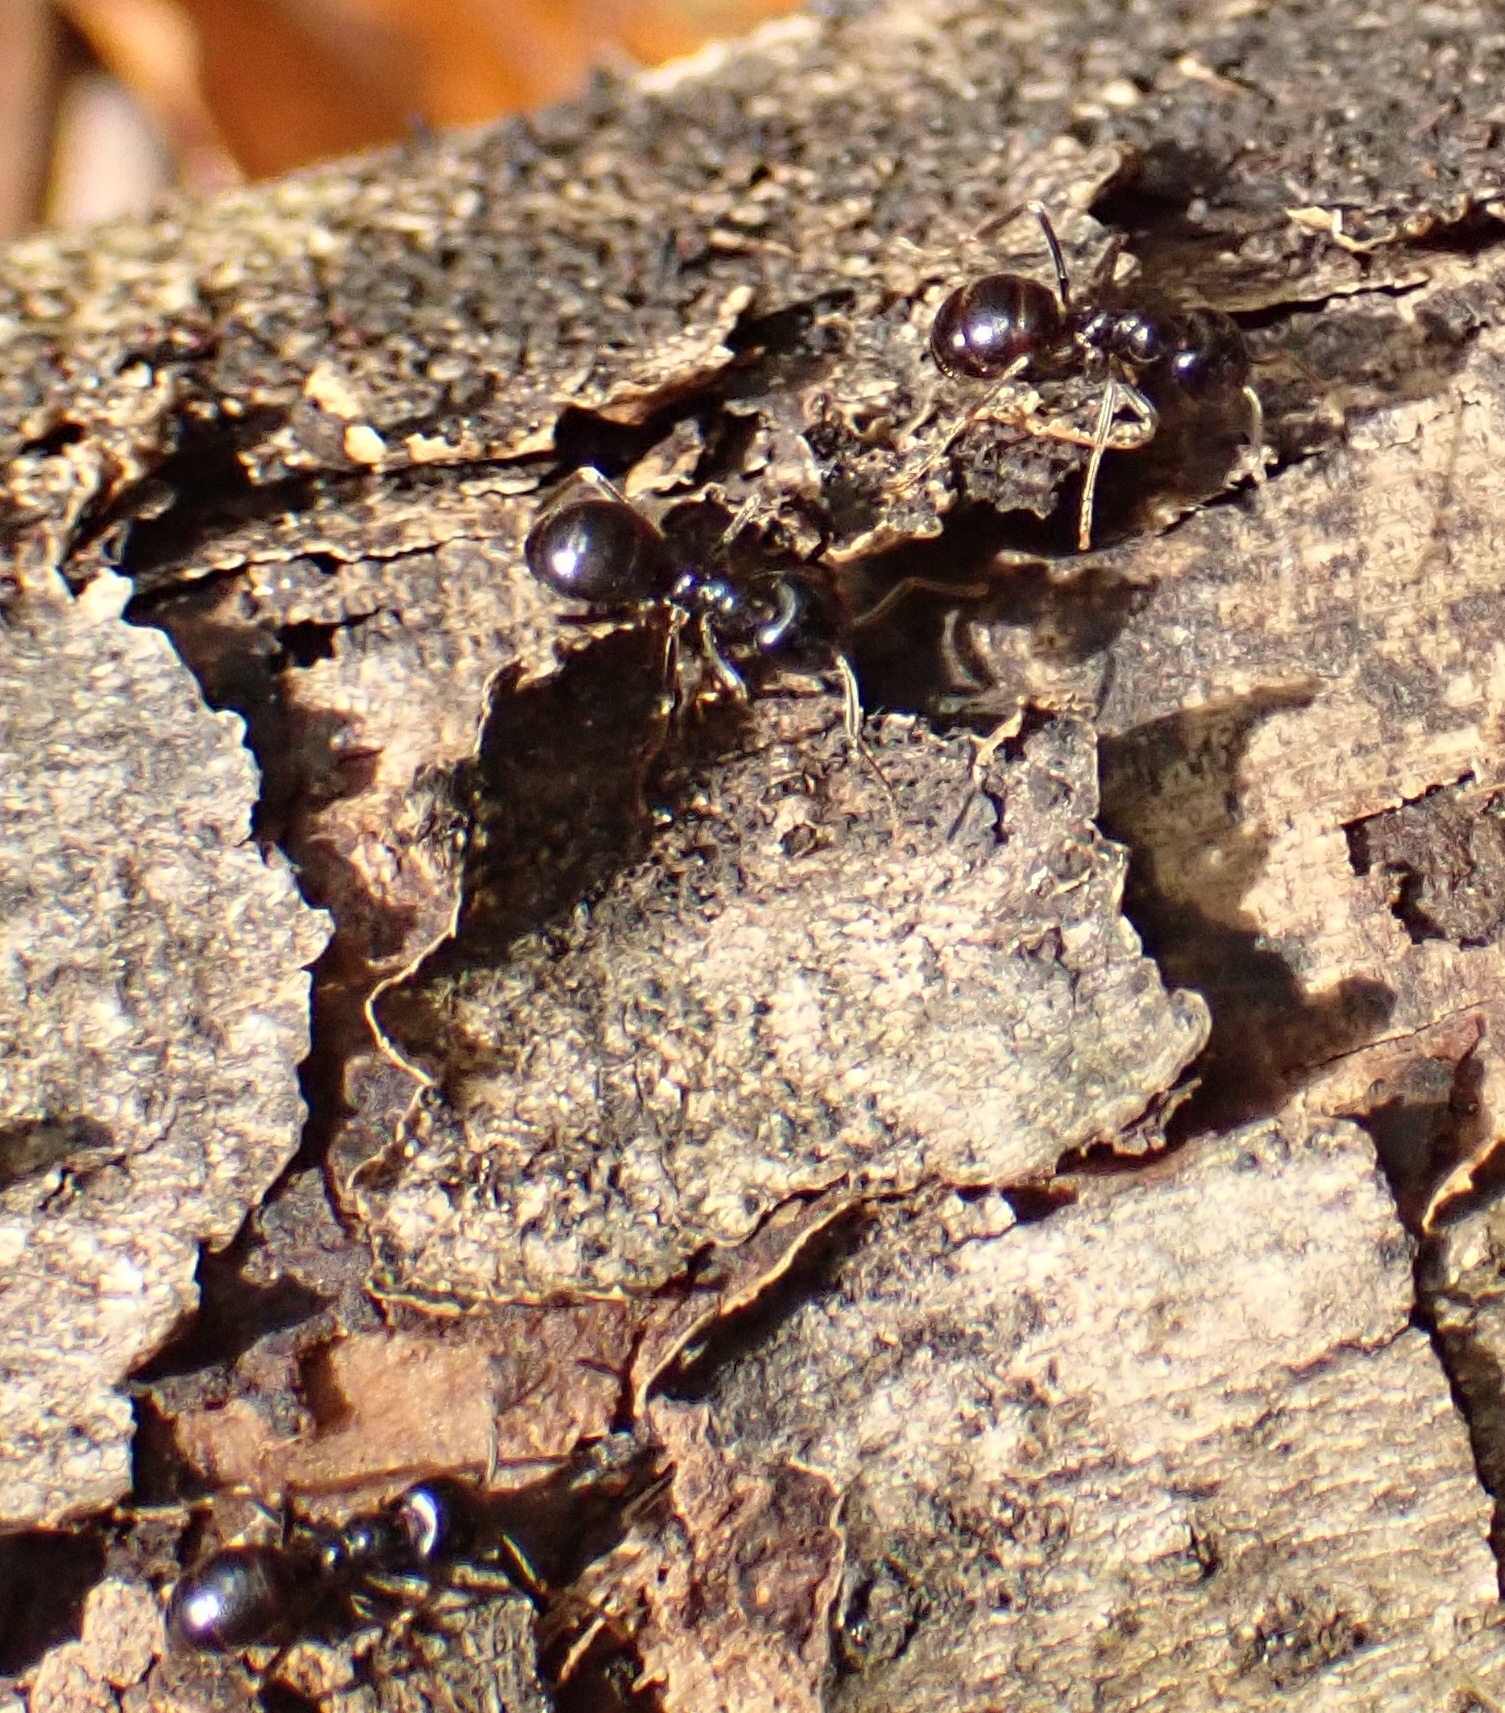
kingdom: Animalia
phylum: Arthropoda
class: Insecta
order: Hymenoptera
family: Formicidae
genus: Lasius
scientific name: Lasius fuliginosus
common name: Jet ant
